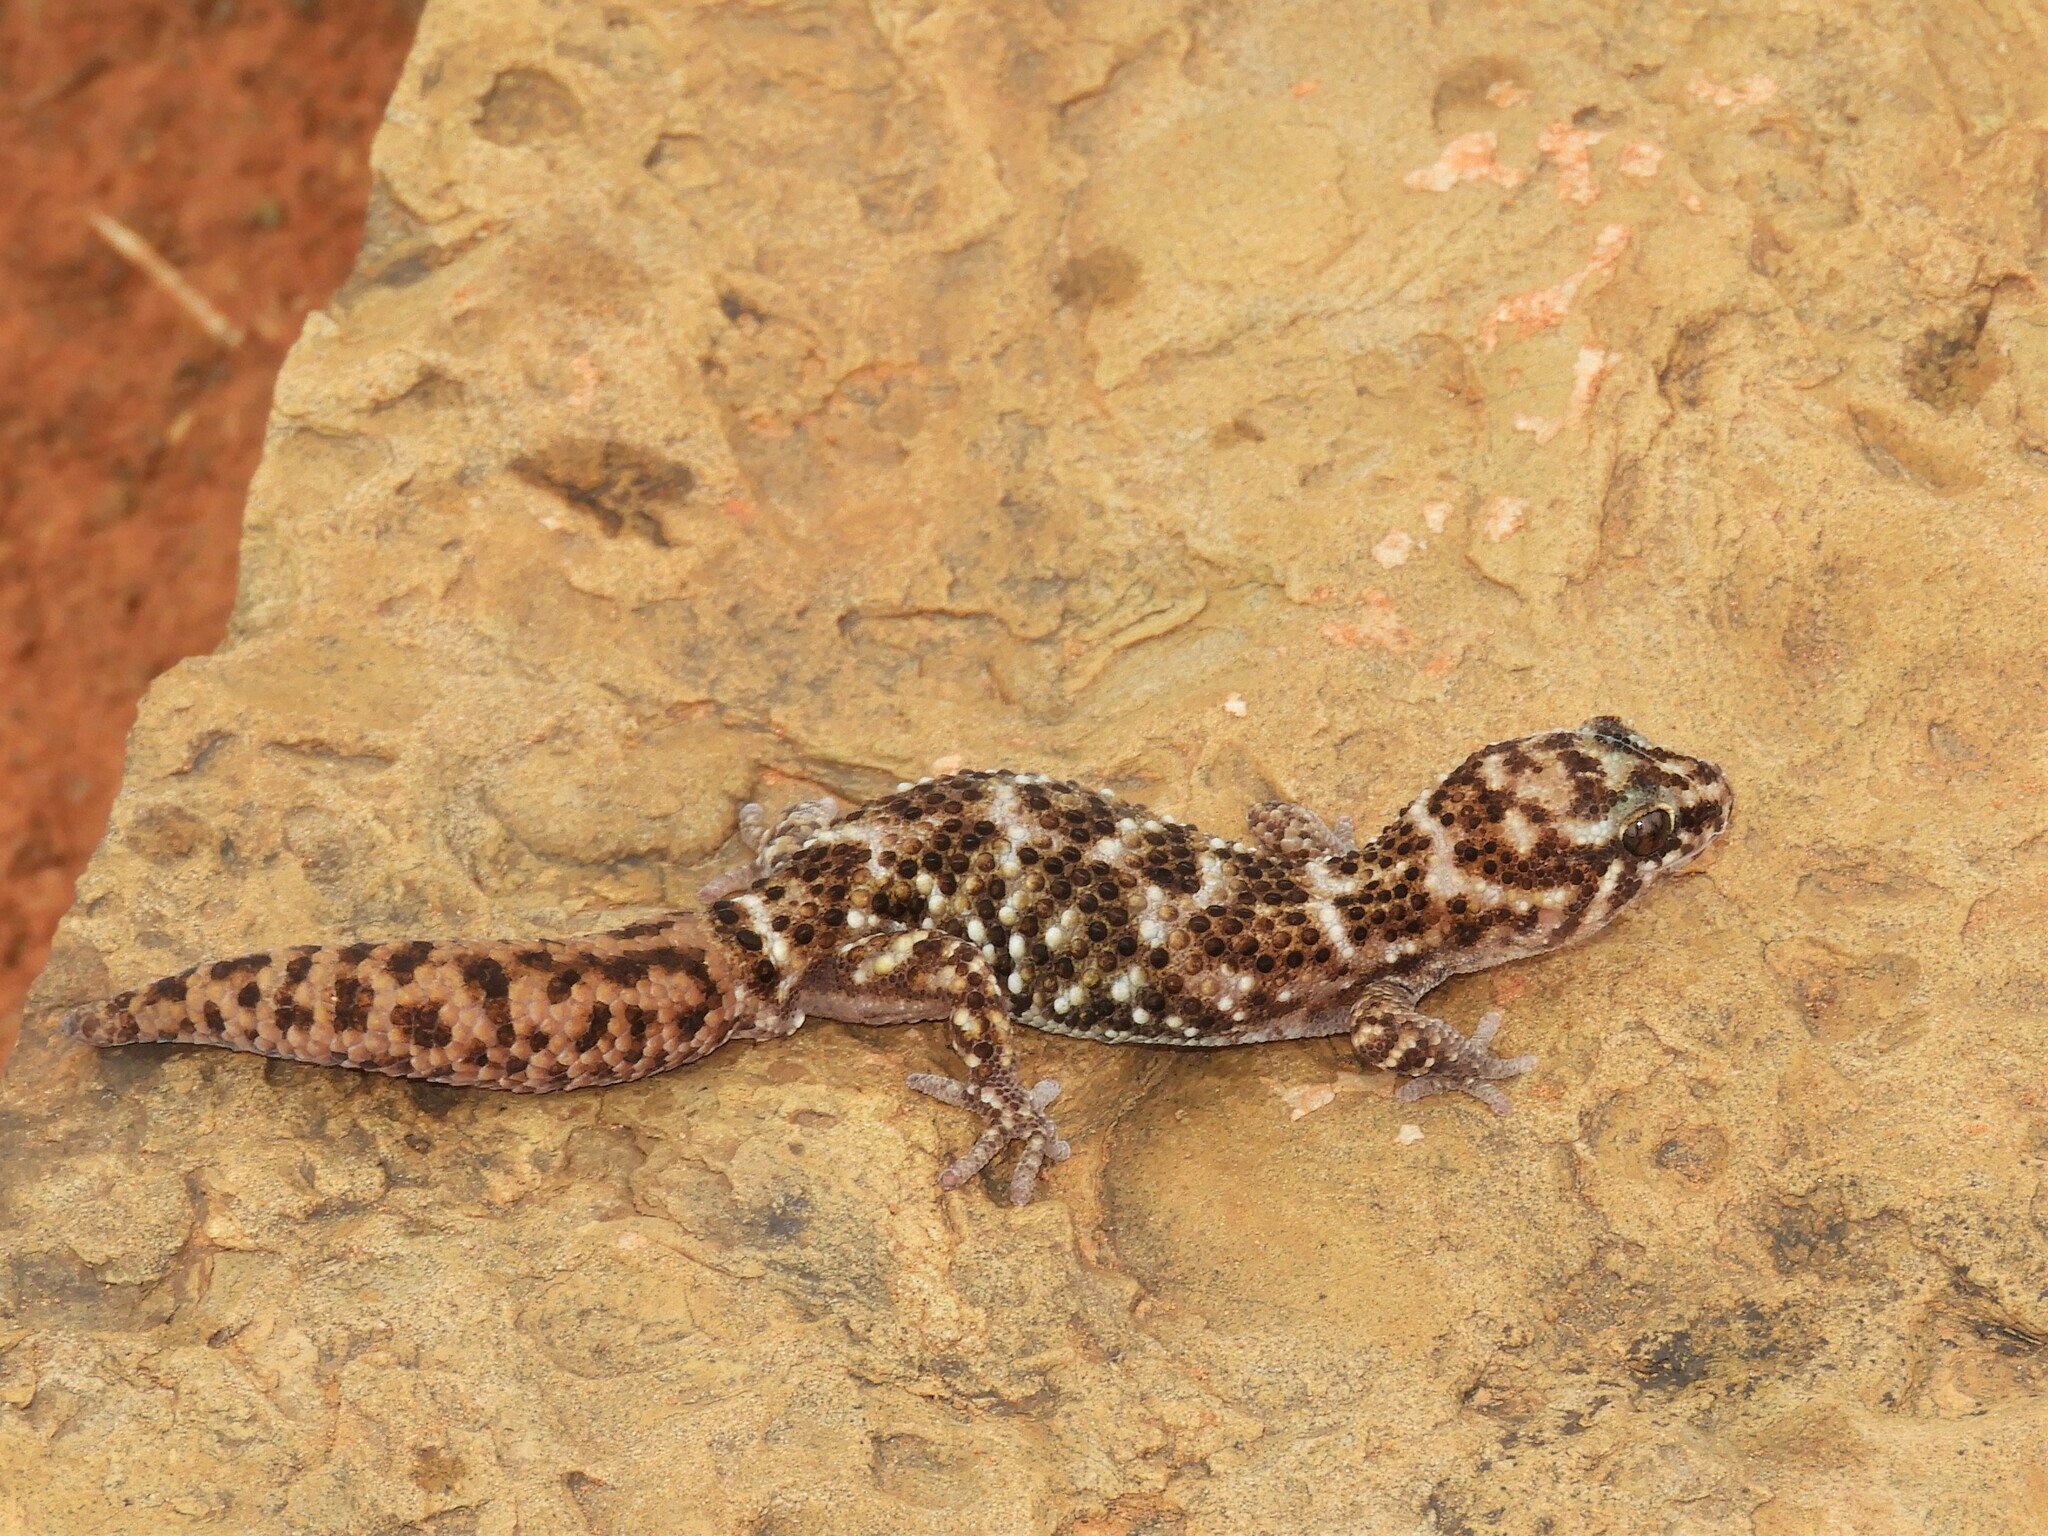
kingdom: Animalia
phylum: Chordata
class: Squamata
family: Gekkonidae
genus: Pachydactylus
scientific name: Pachydactylus capensis
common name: Cape gecko
